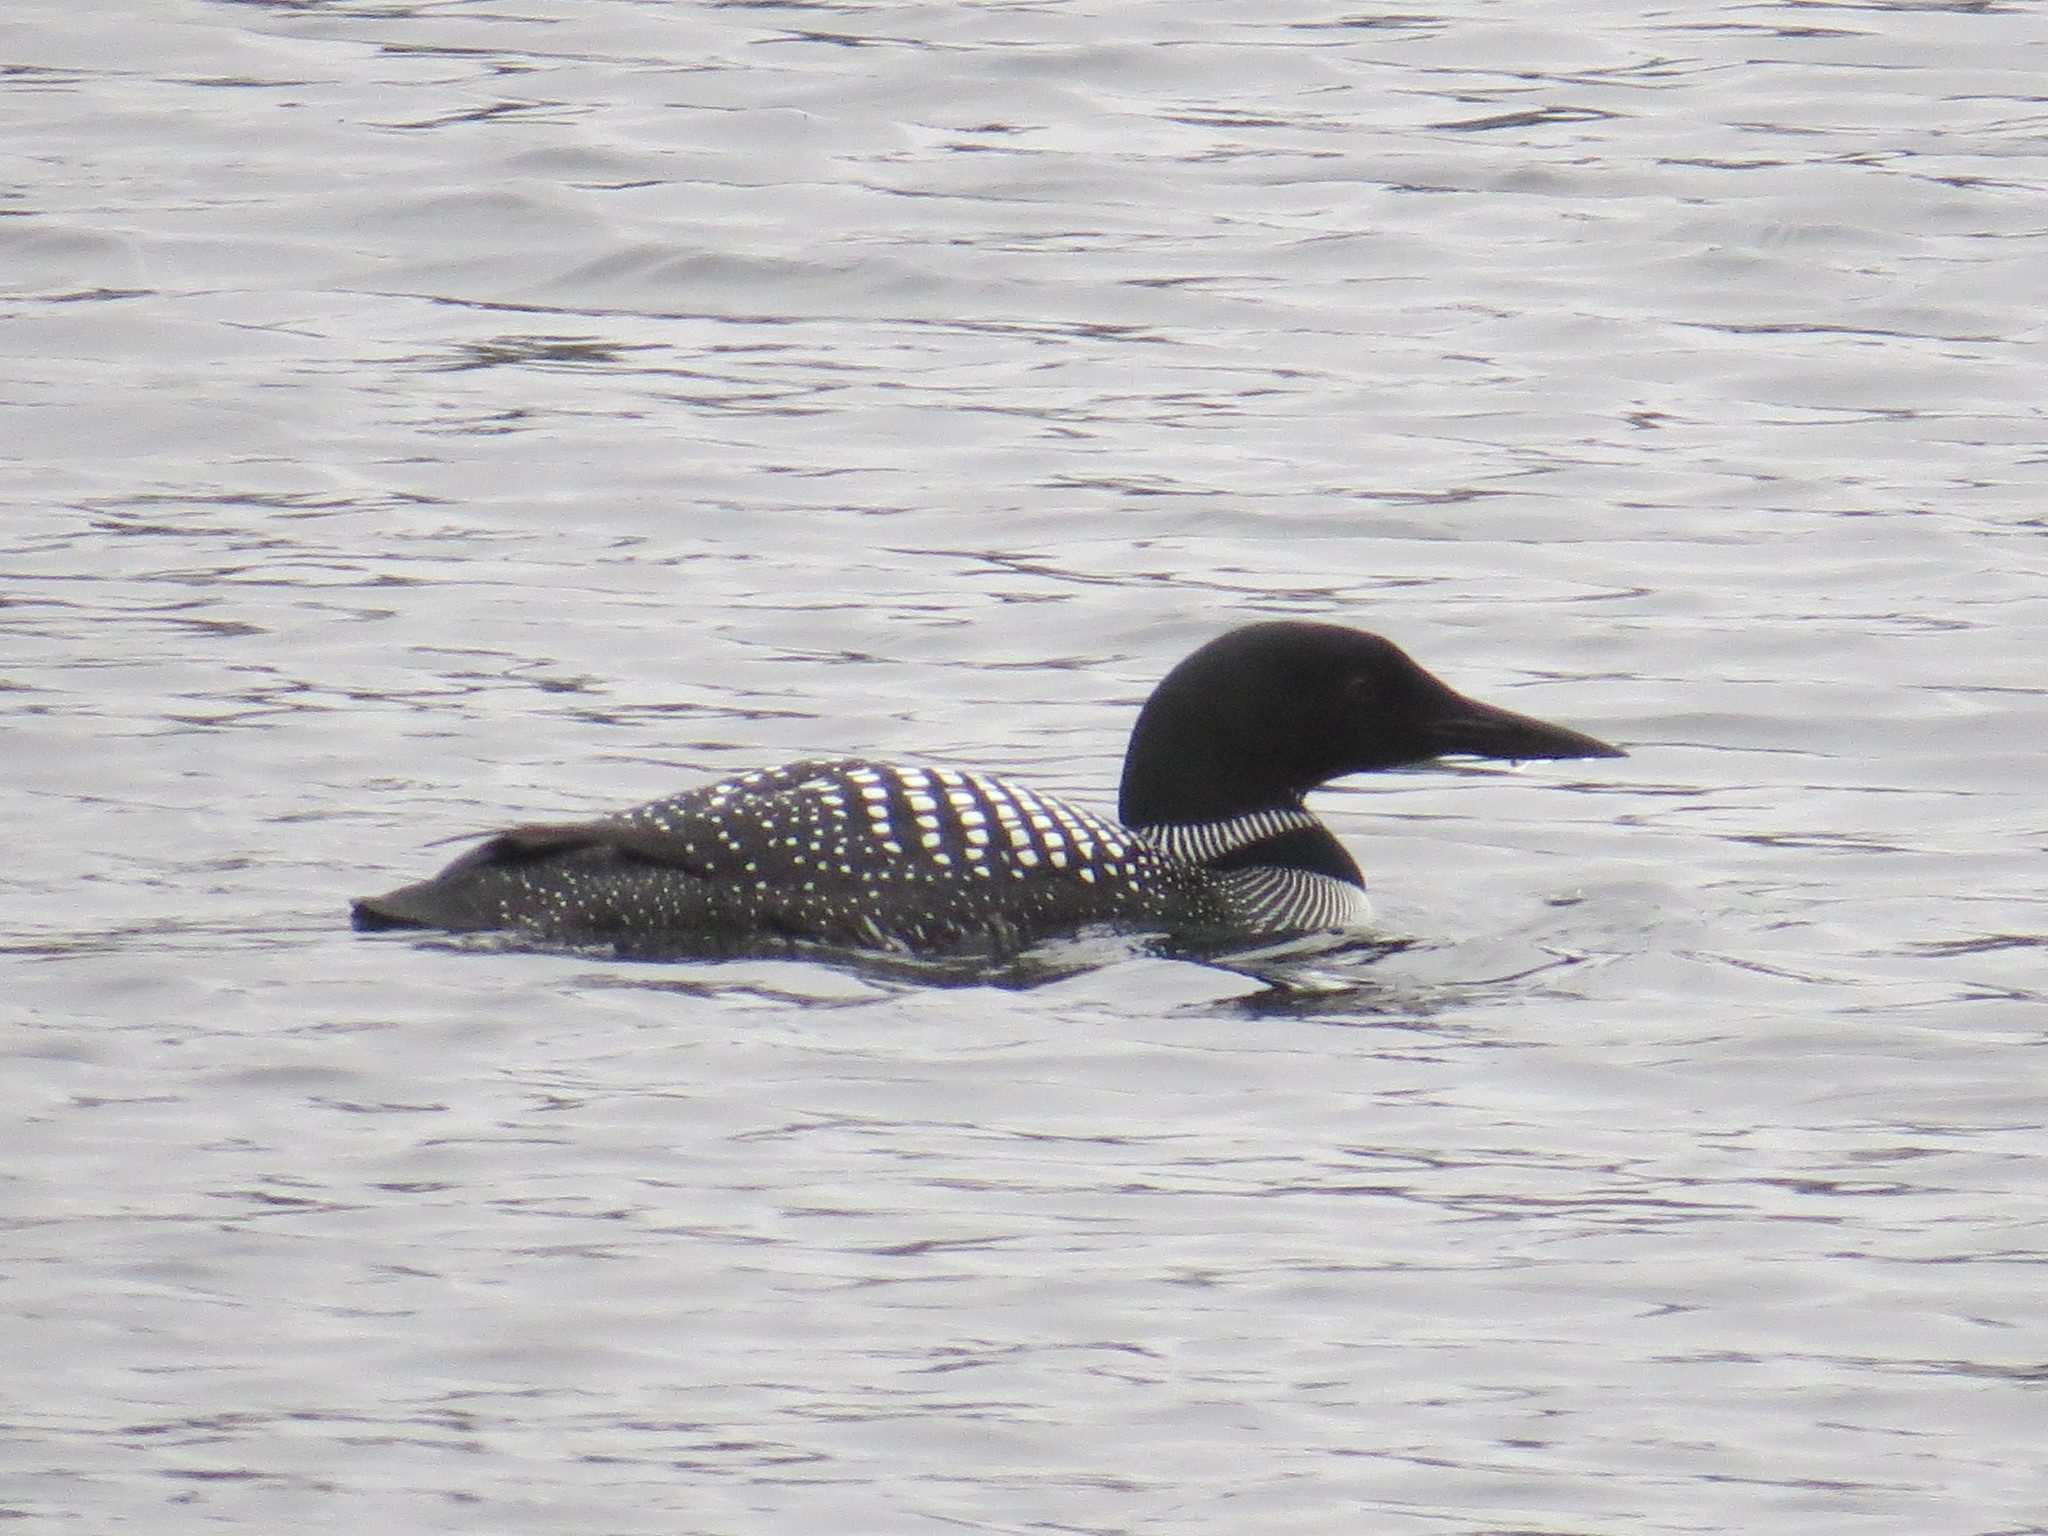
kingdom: Animalia
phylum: Chordata
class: Aves
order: Gaviiformes
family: Gaviidae
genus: Gavia
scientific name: Gavia immer
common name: Common loon
